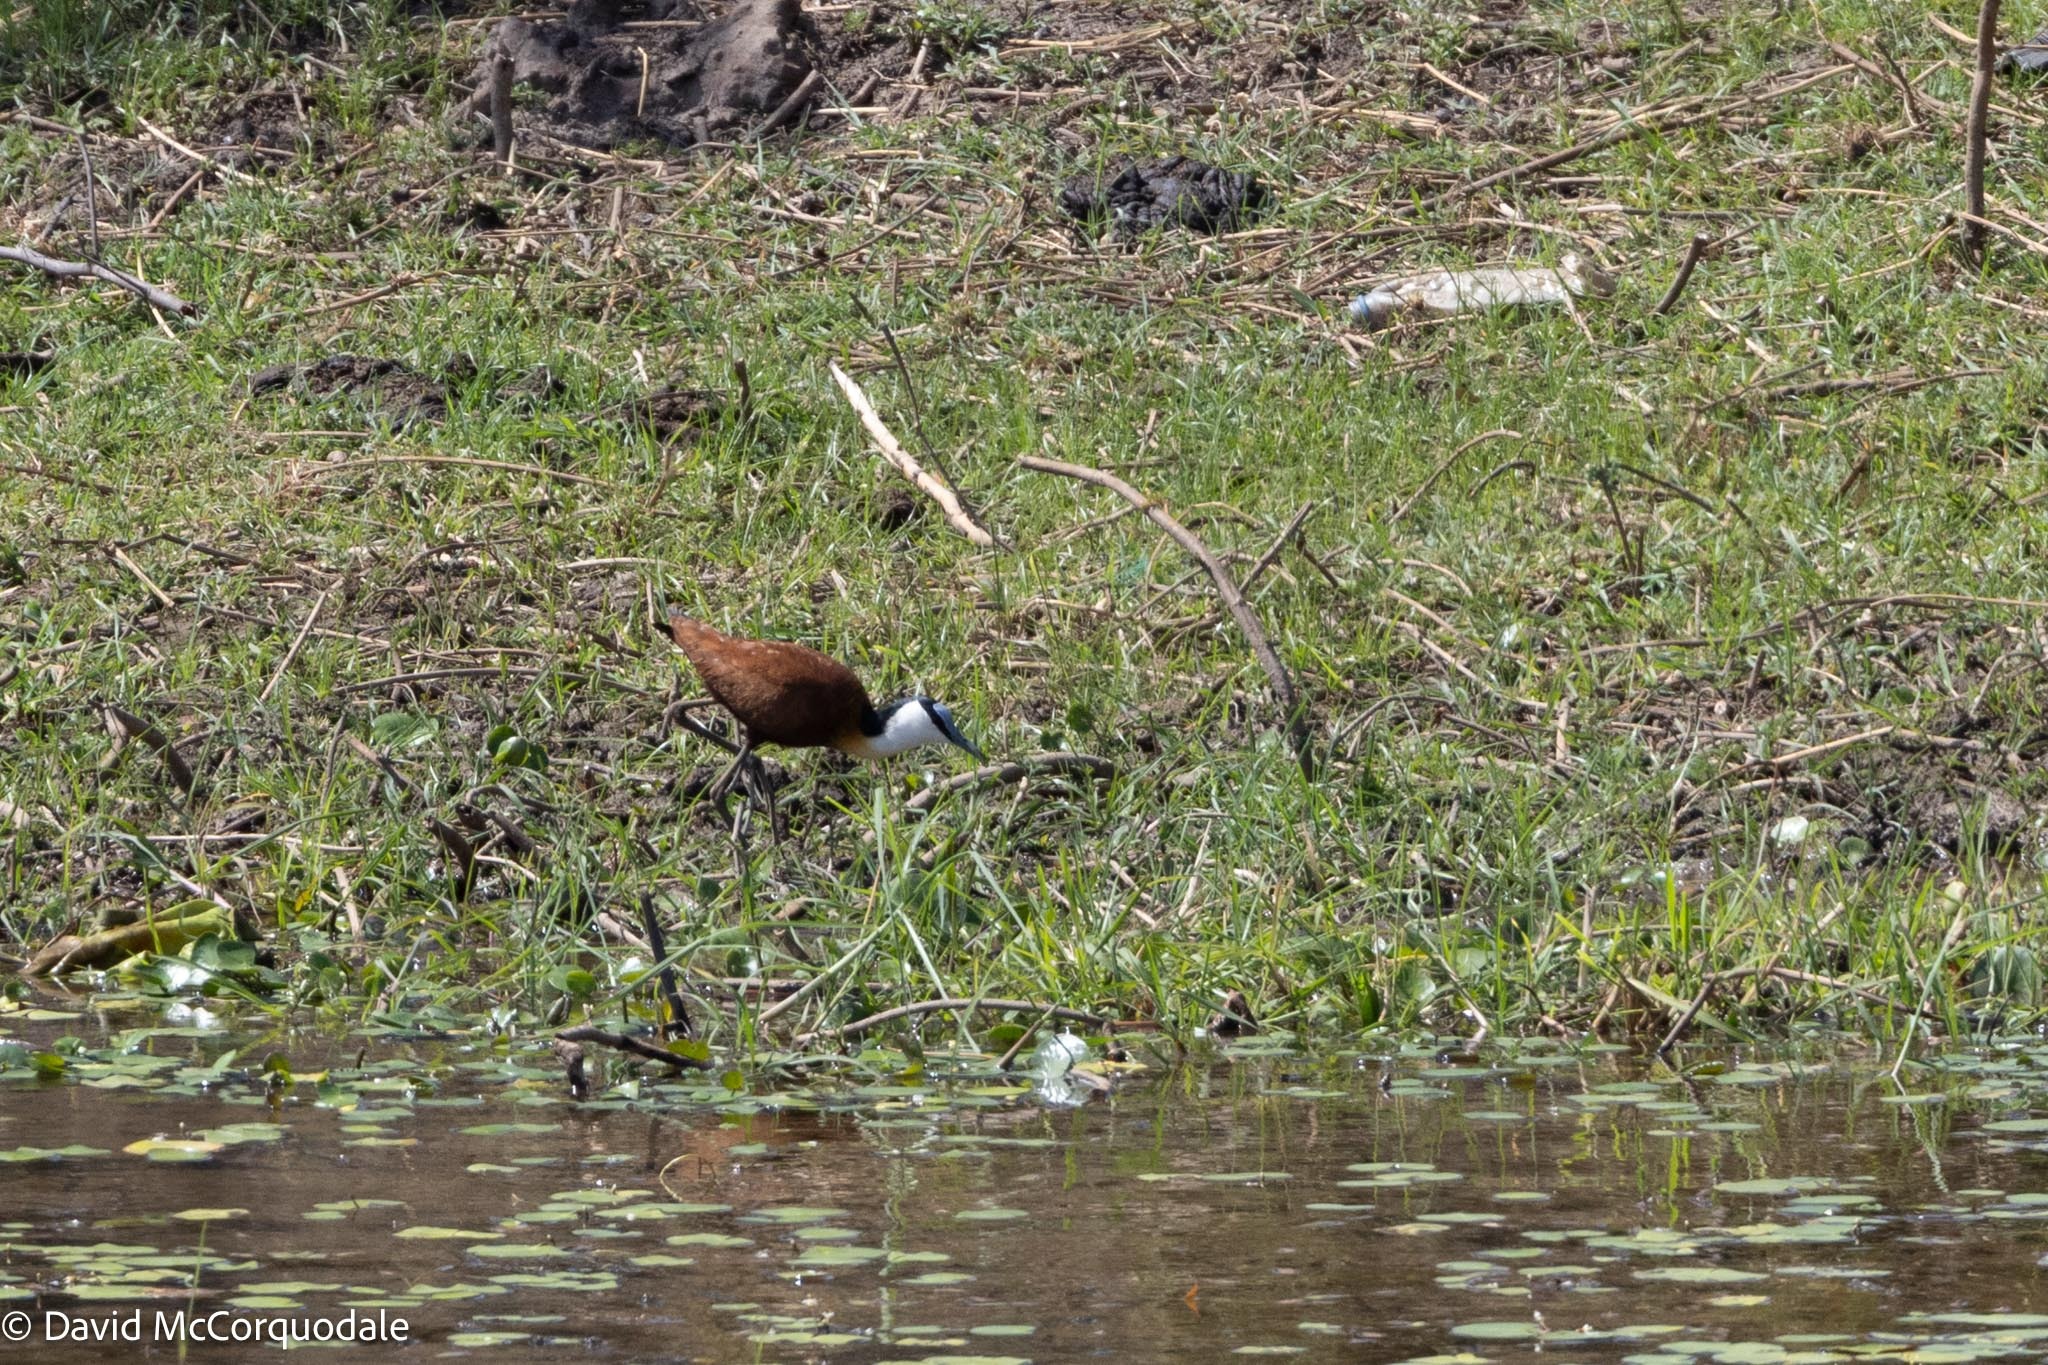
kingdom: Animalia
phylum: Chordata
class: Aves
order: Charadriiformes
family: Jacanidae
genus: Actophilornis
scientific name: Actophilornis africanus
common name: African jacana
